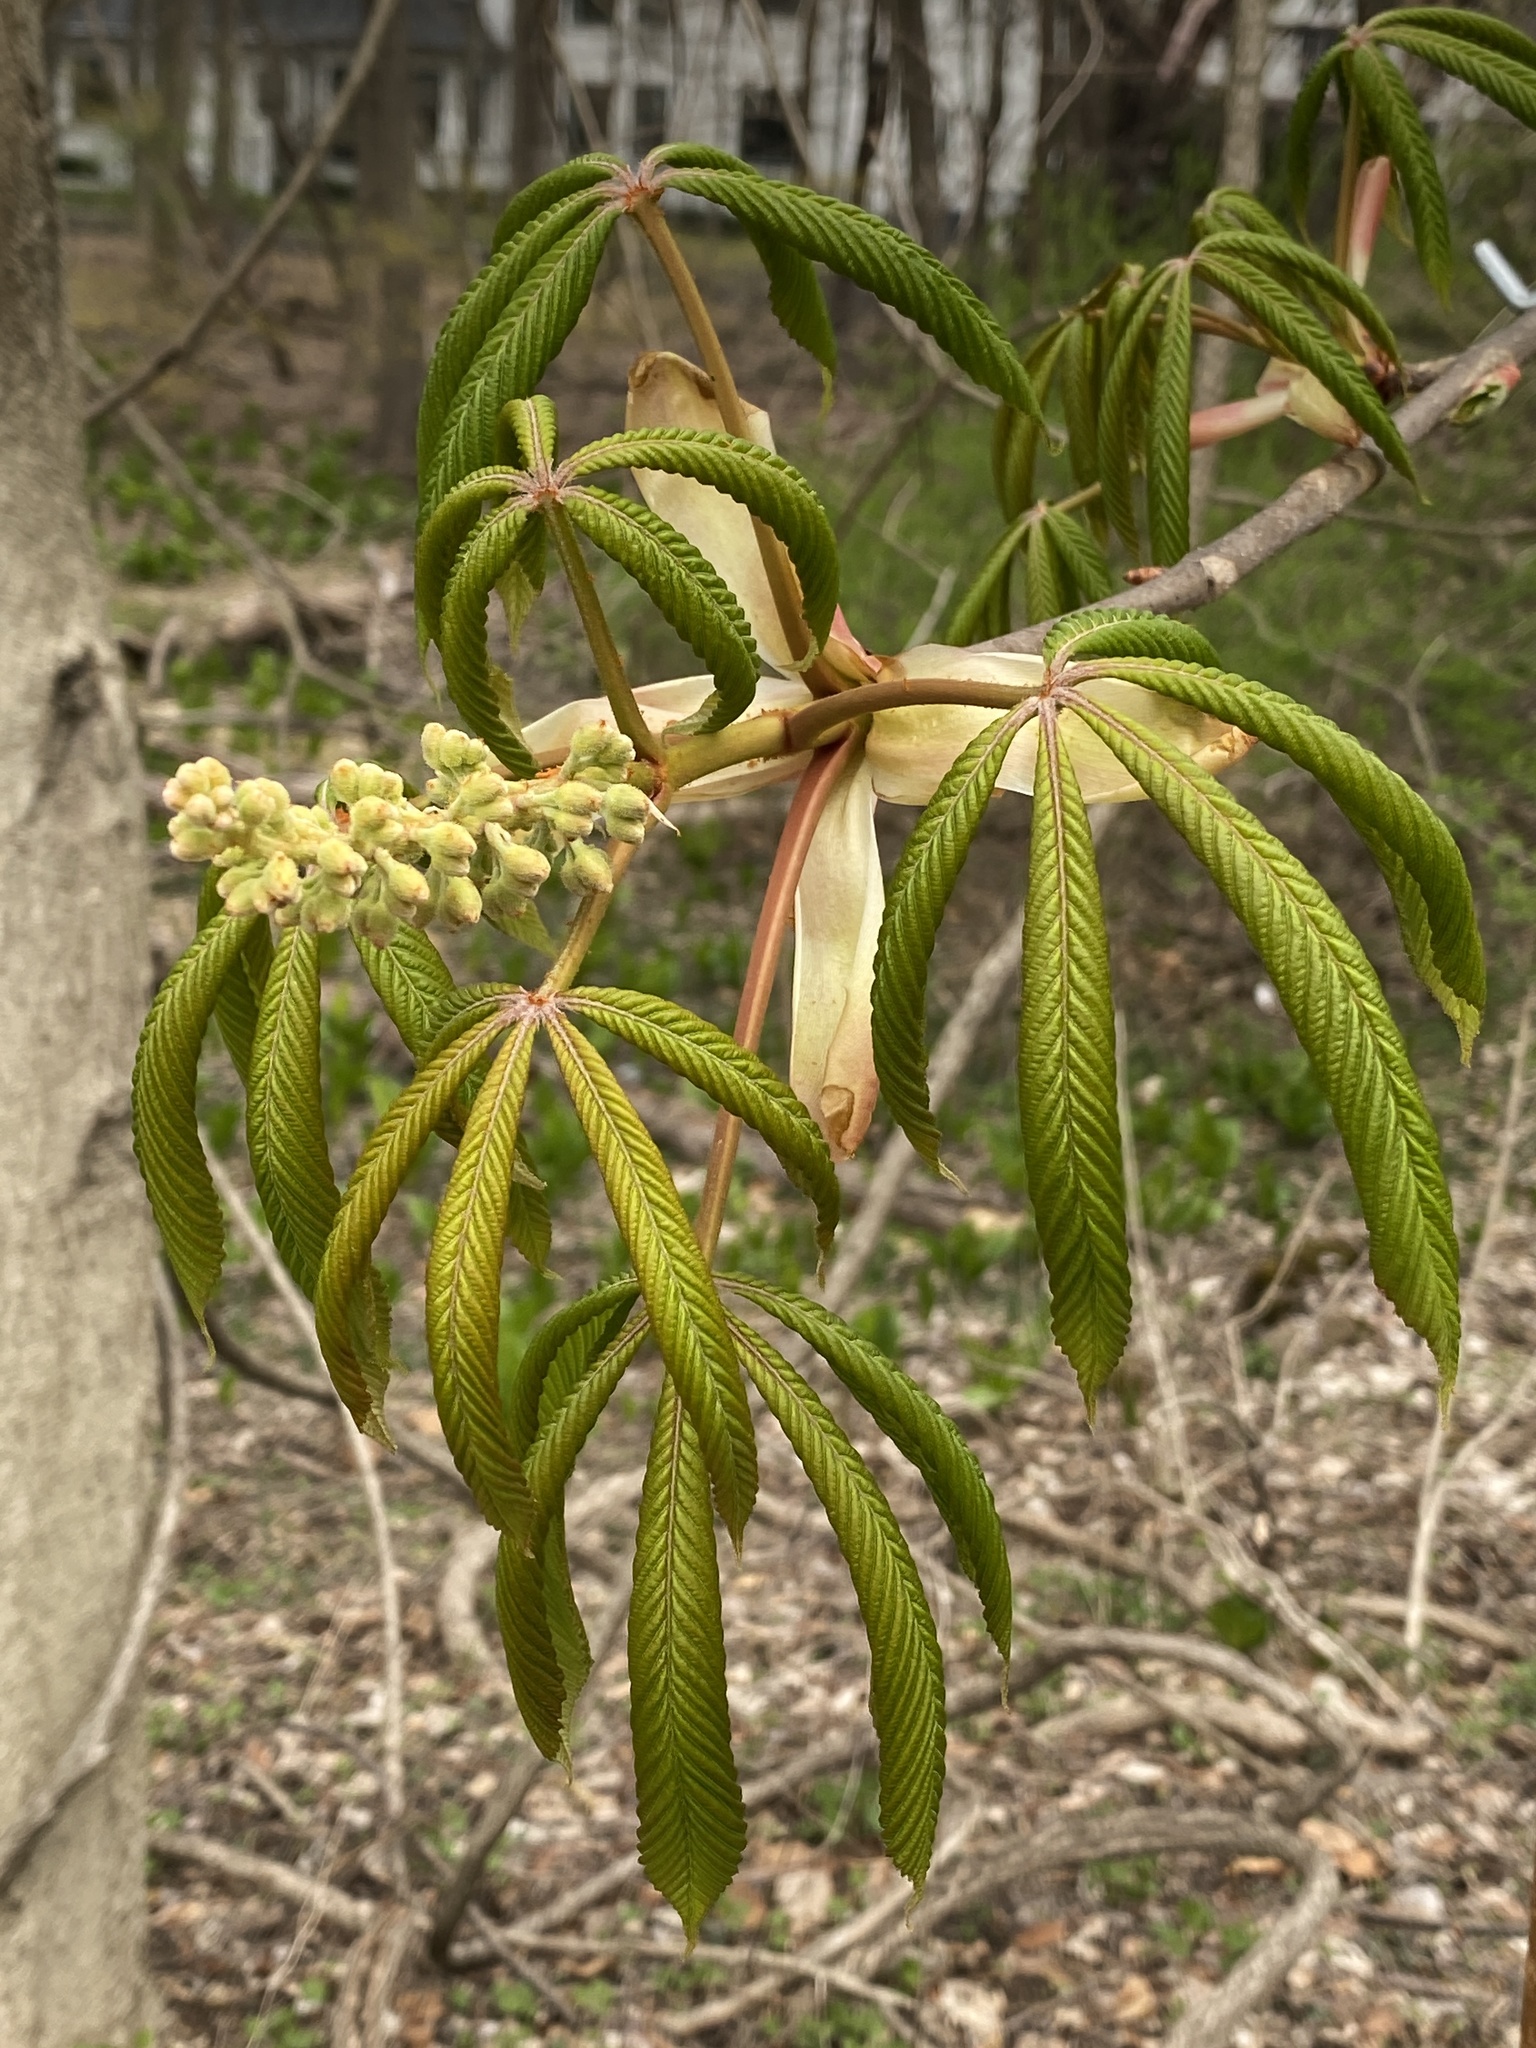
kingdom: Plantae
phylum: Tracheophyta
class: Magnoliopsida
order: Sapindales
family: Sapindaceae
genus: Aesculus
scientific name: Aesculus flava
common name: Yellow buckeye
